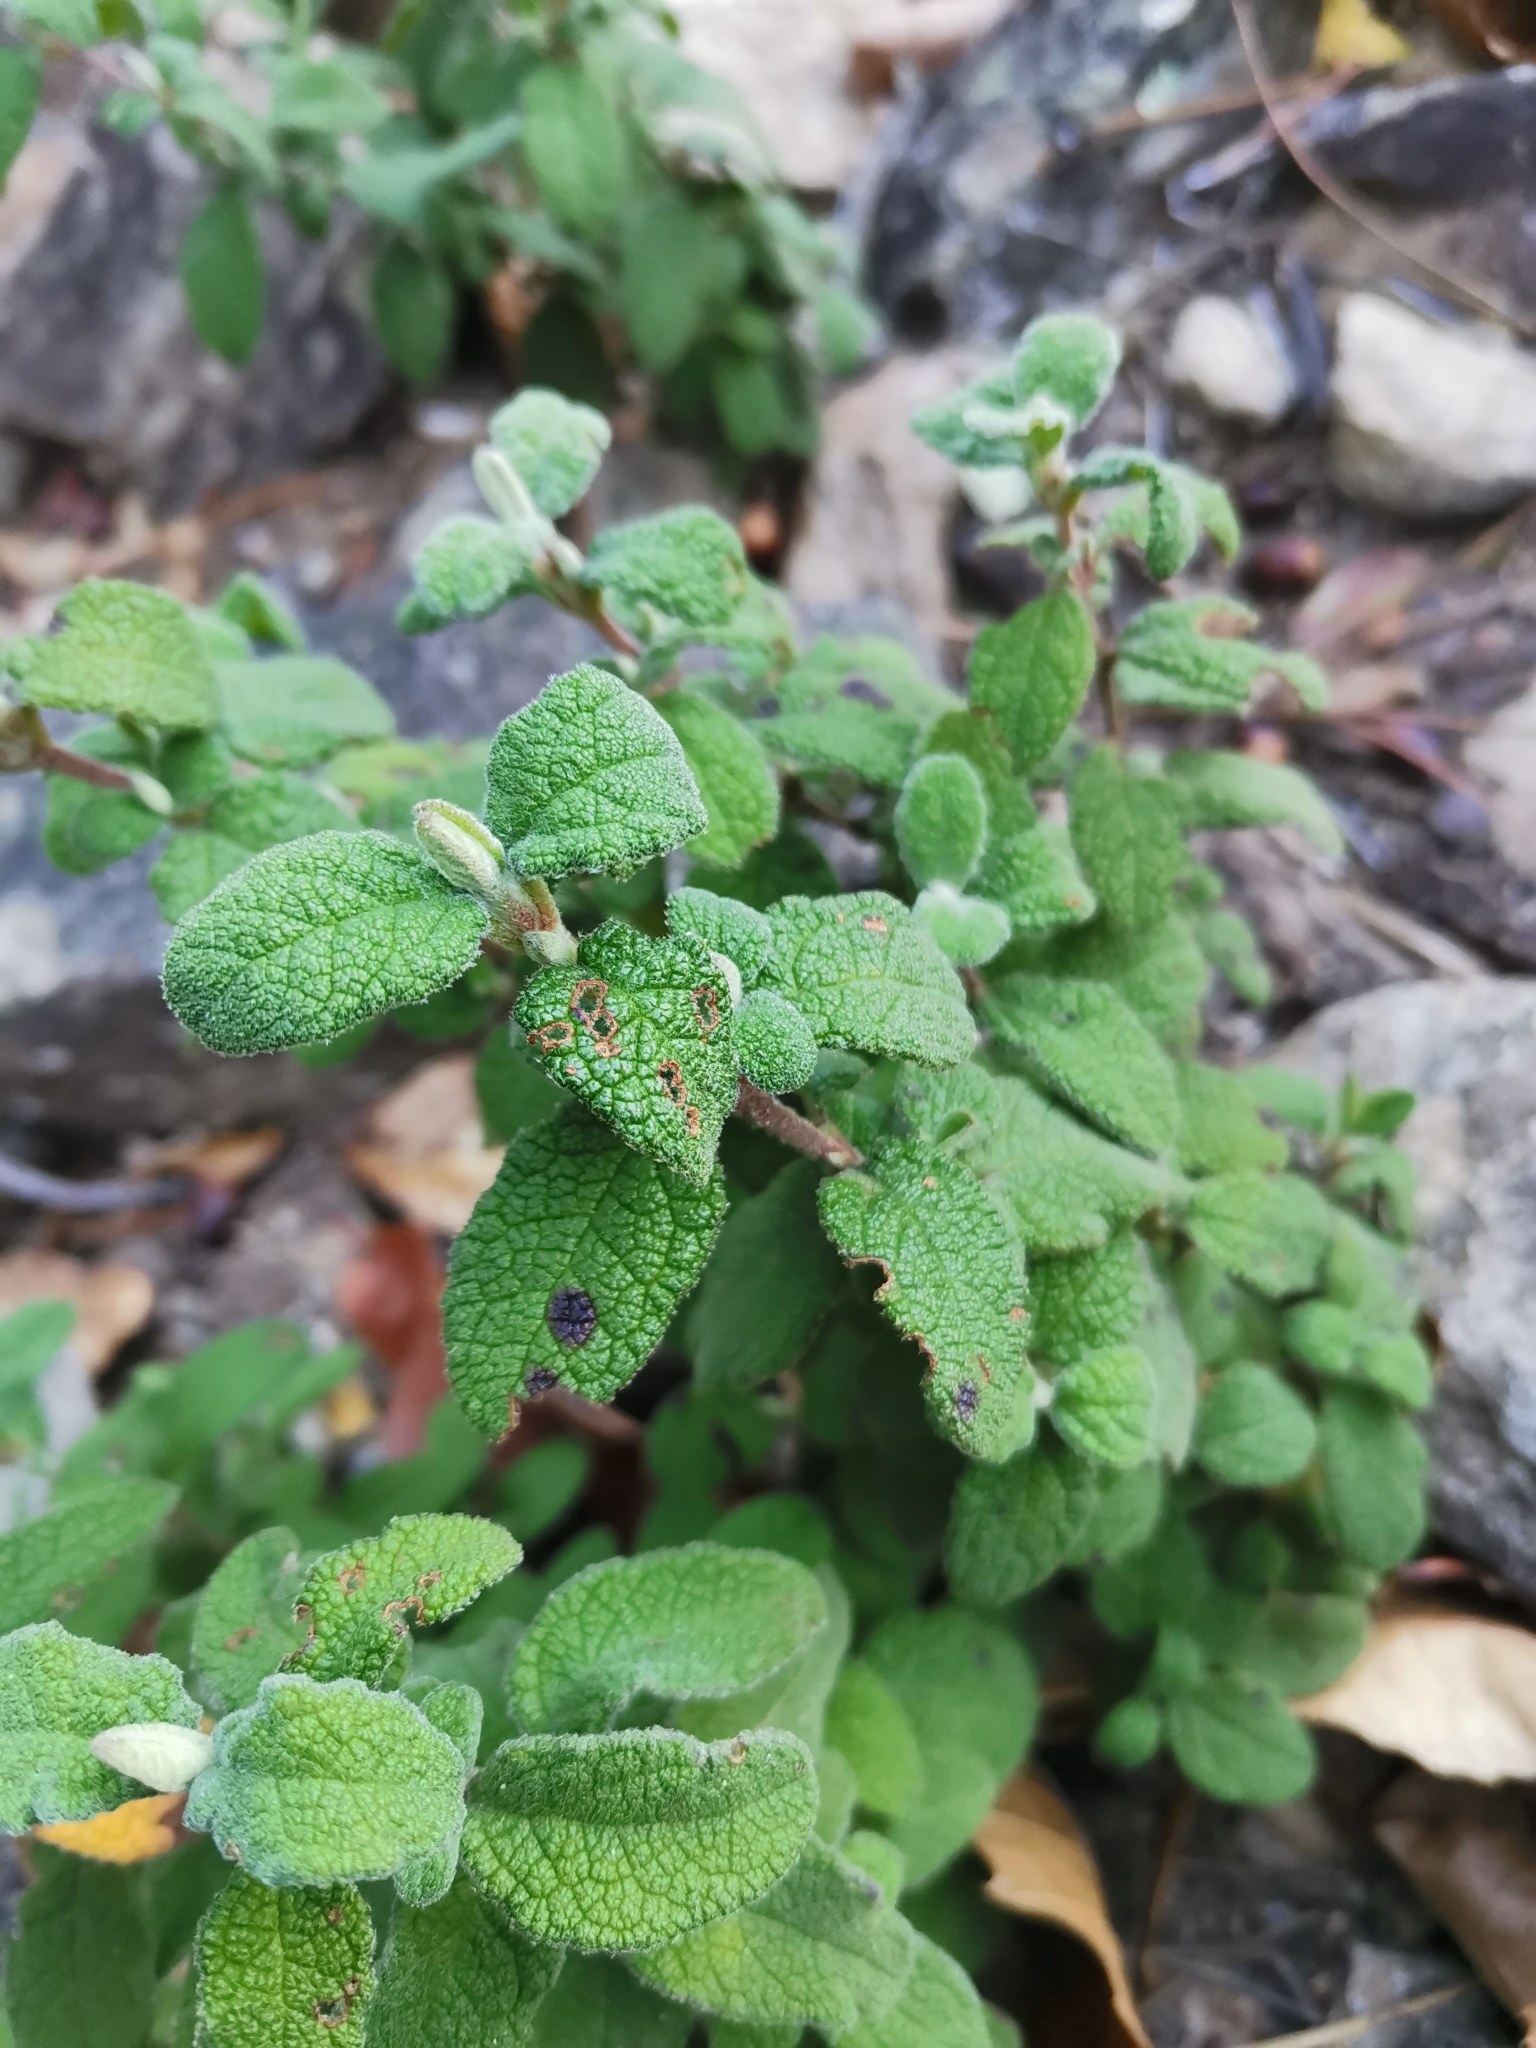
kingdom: Plantae
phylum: Tracheophyta
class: Magnoliopsida
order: Malvales
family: Cistaceae
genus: Cistus
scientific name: Cistus salviifolius
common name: Salvia cistus
